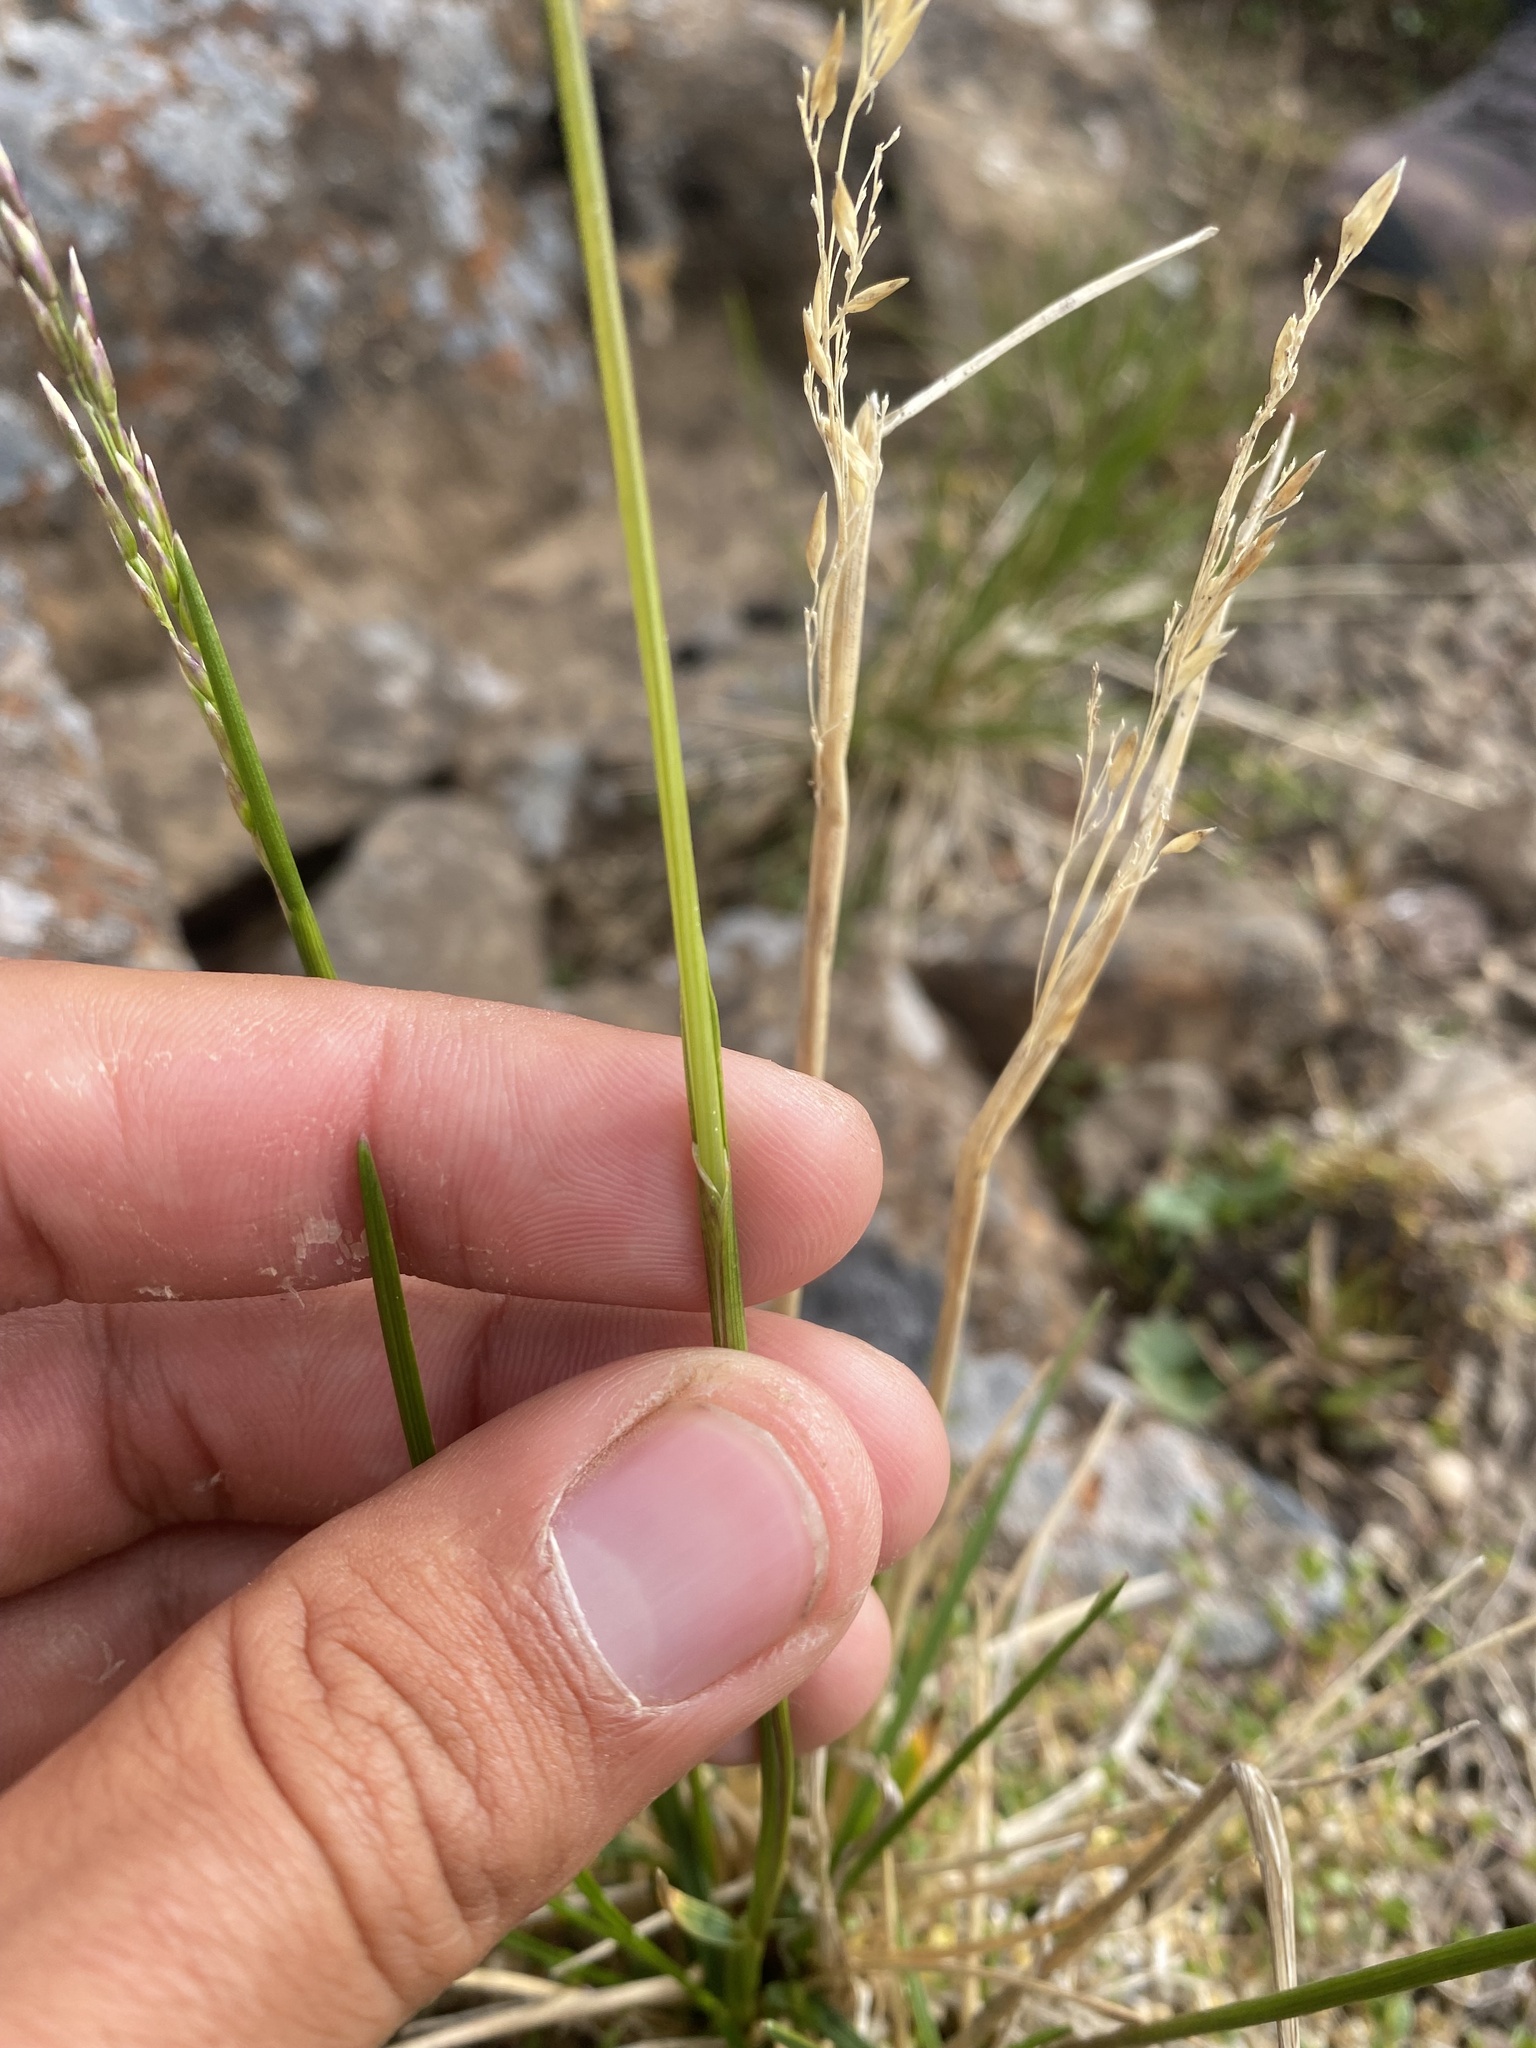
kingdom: Plantae
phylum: Tracheophyta
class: Liliopsida
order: Poales
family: Poaceae
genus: Deschampsia
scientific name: Deschampsia cespitosa
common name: Tufted hair-grass
